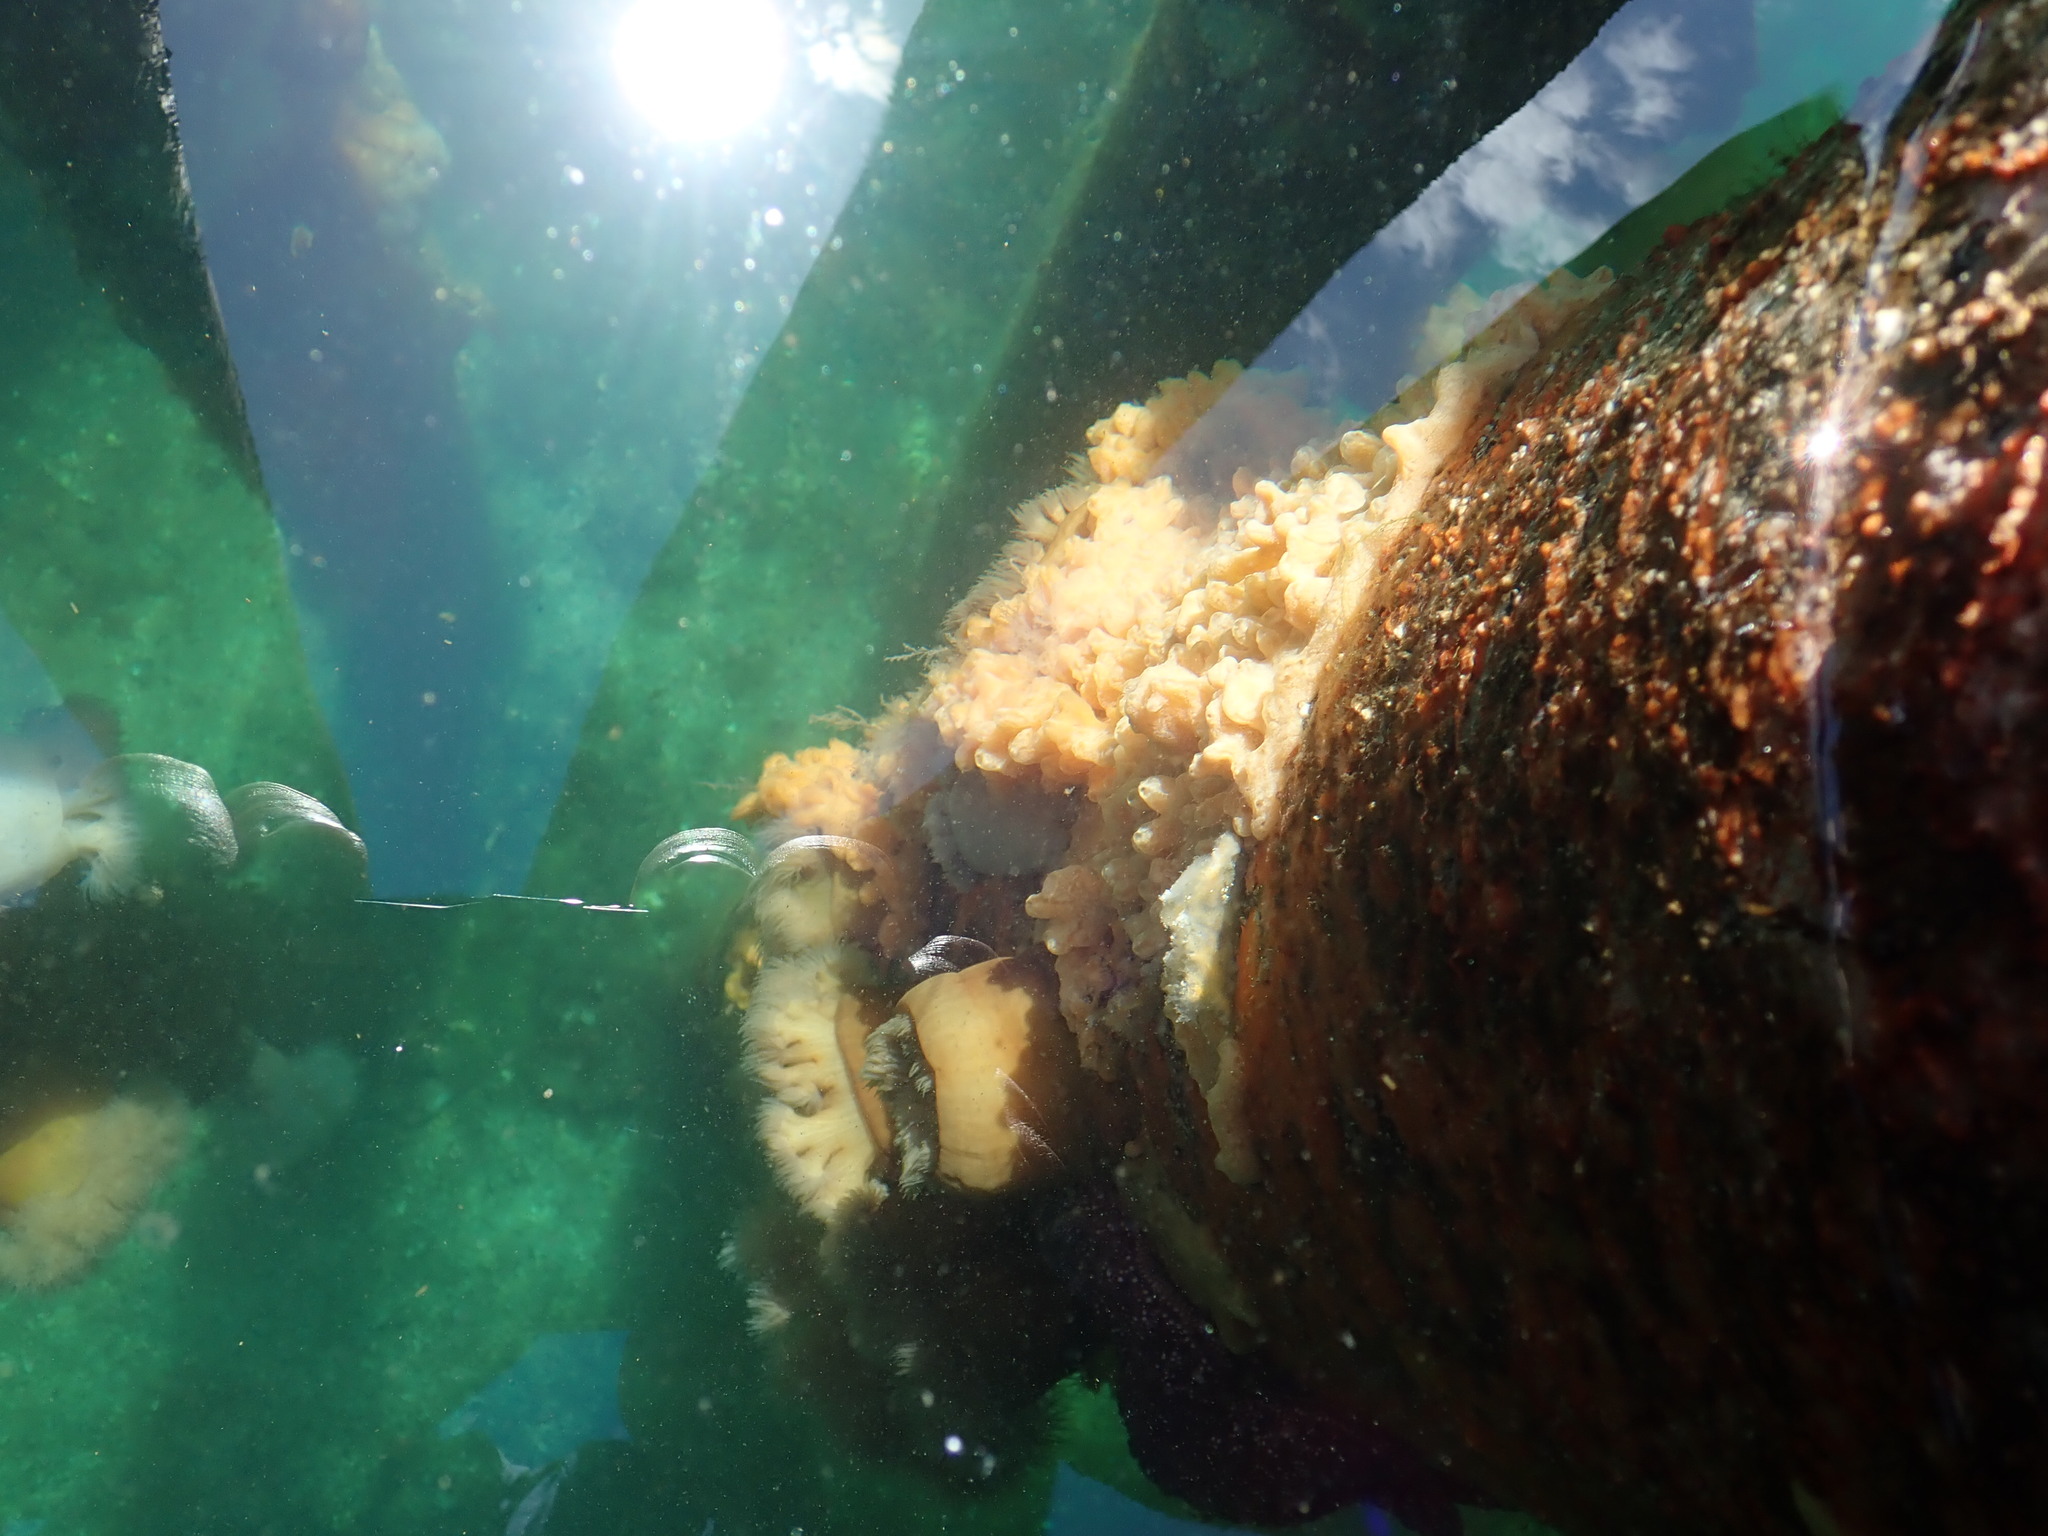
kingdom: Animalia
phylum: Cnidaria
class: Anthozoa
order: Actiniaria
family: Metridiidae
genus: Metridium
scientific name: Metridium farcimen
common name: Gigantic anemone
